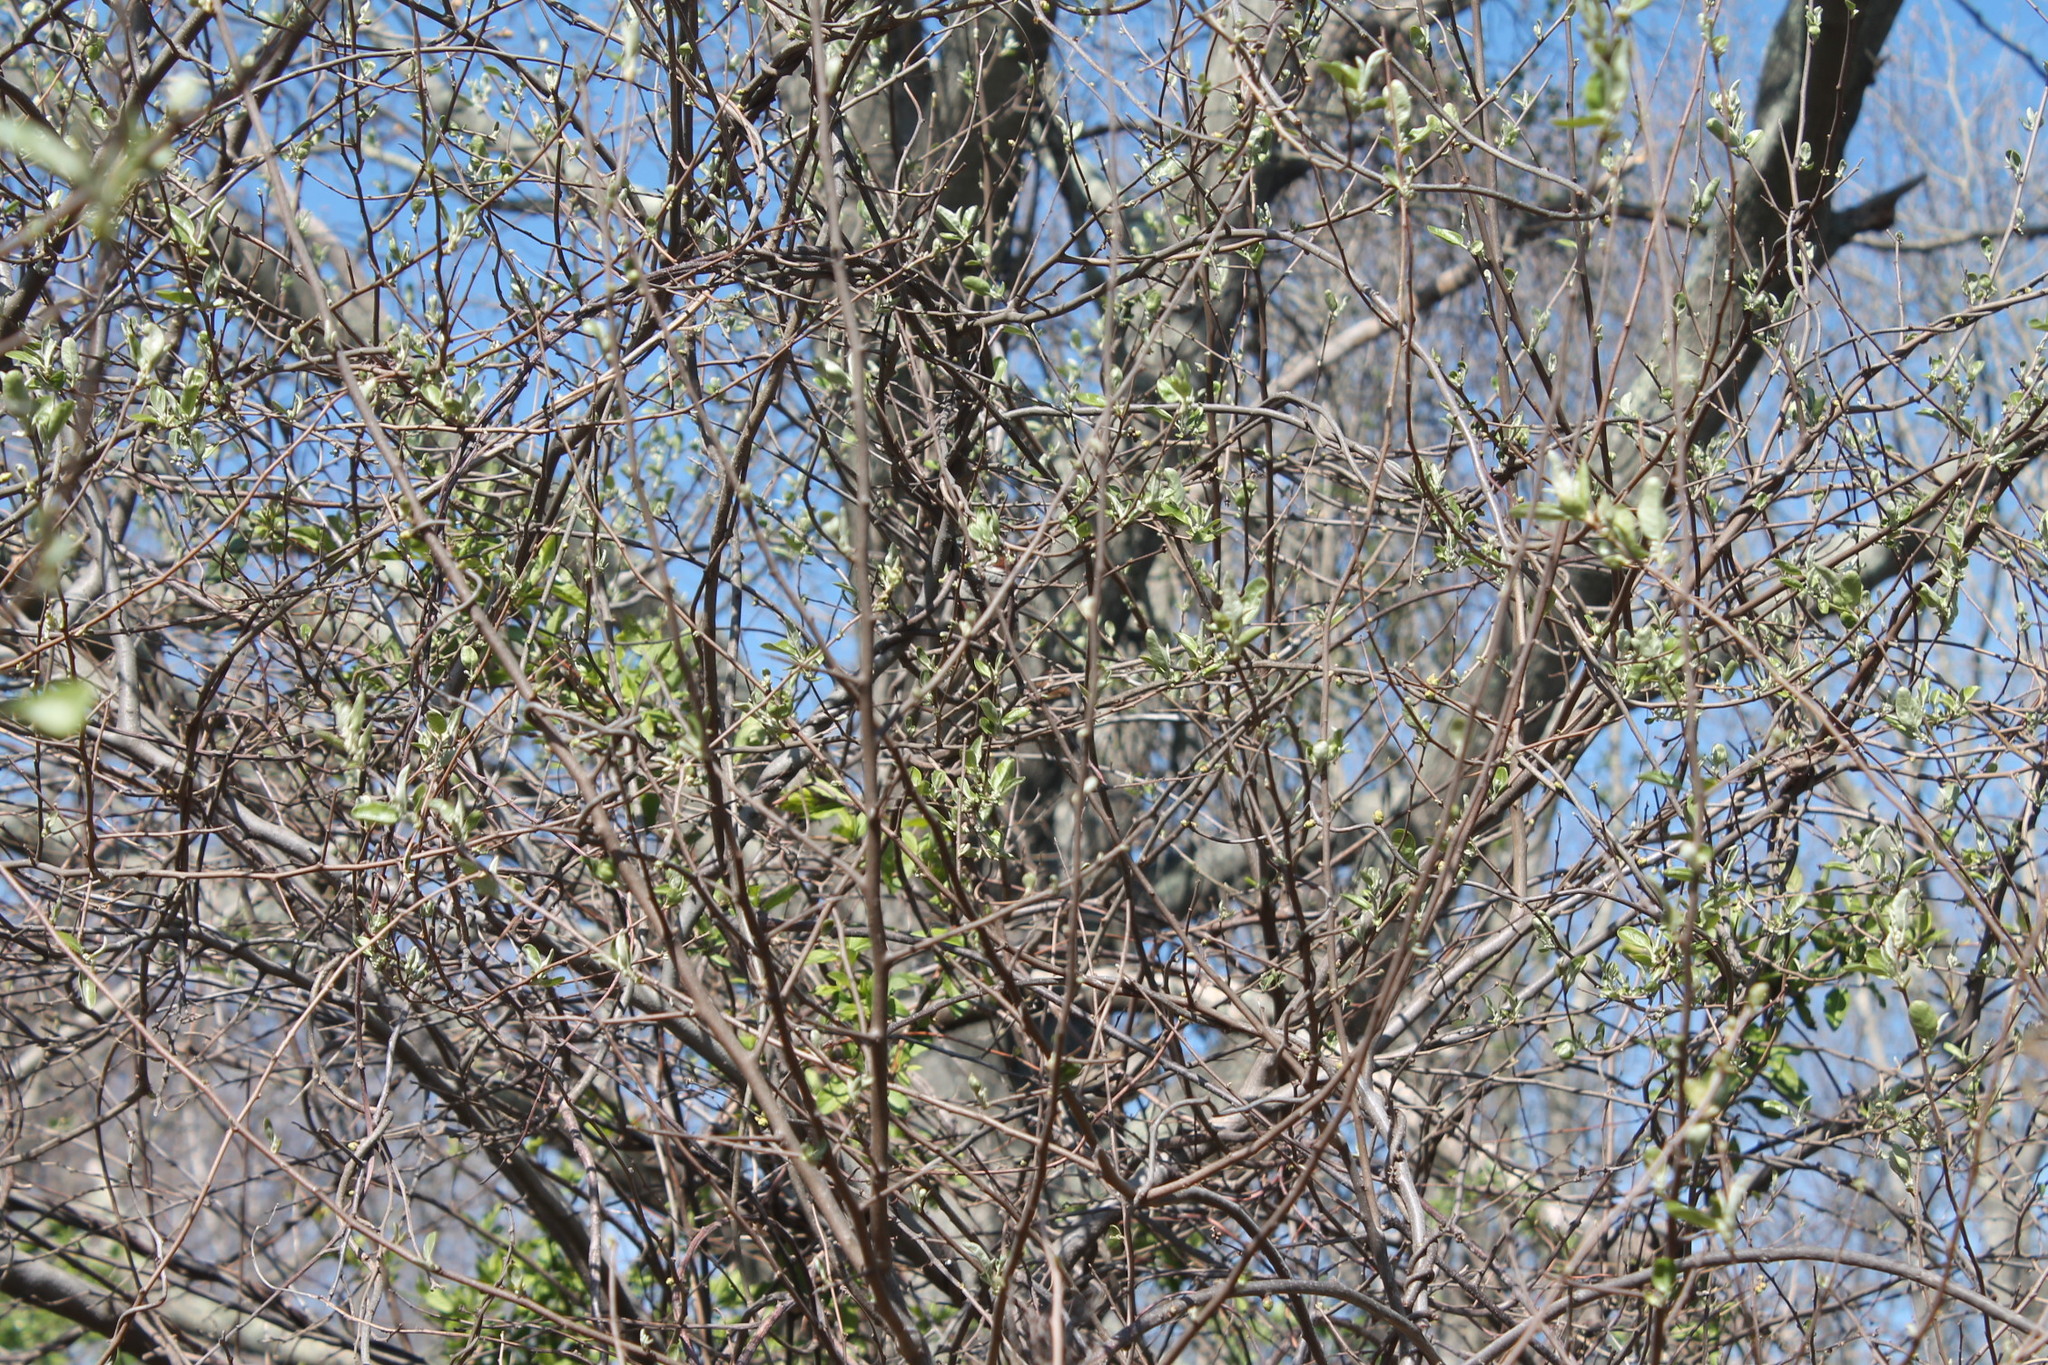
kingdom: Animalia
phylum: Chordata
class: Aves
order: Passeriformes
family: Passeridae
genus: Passer
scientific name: Passer domesticus
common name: House sparrow
